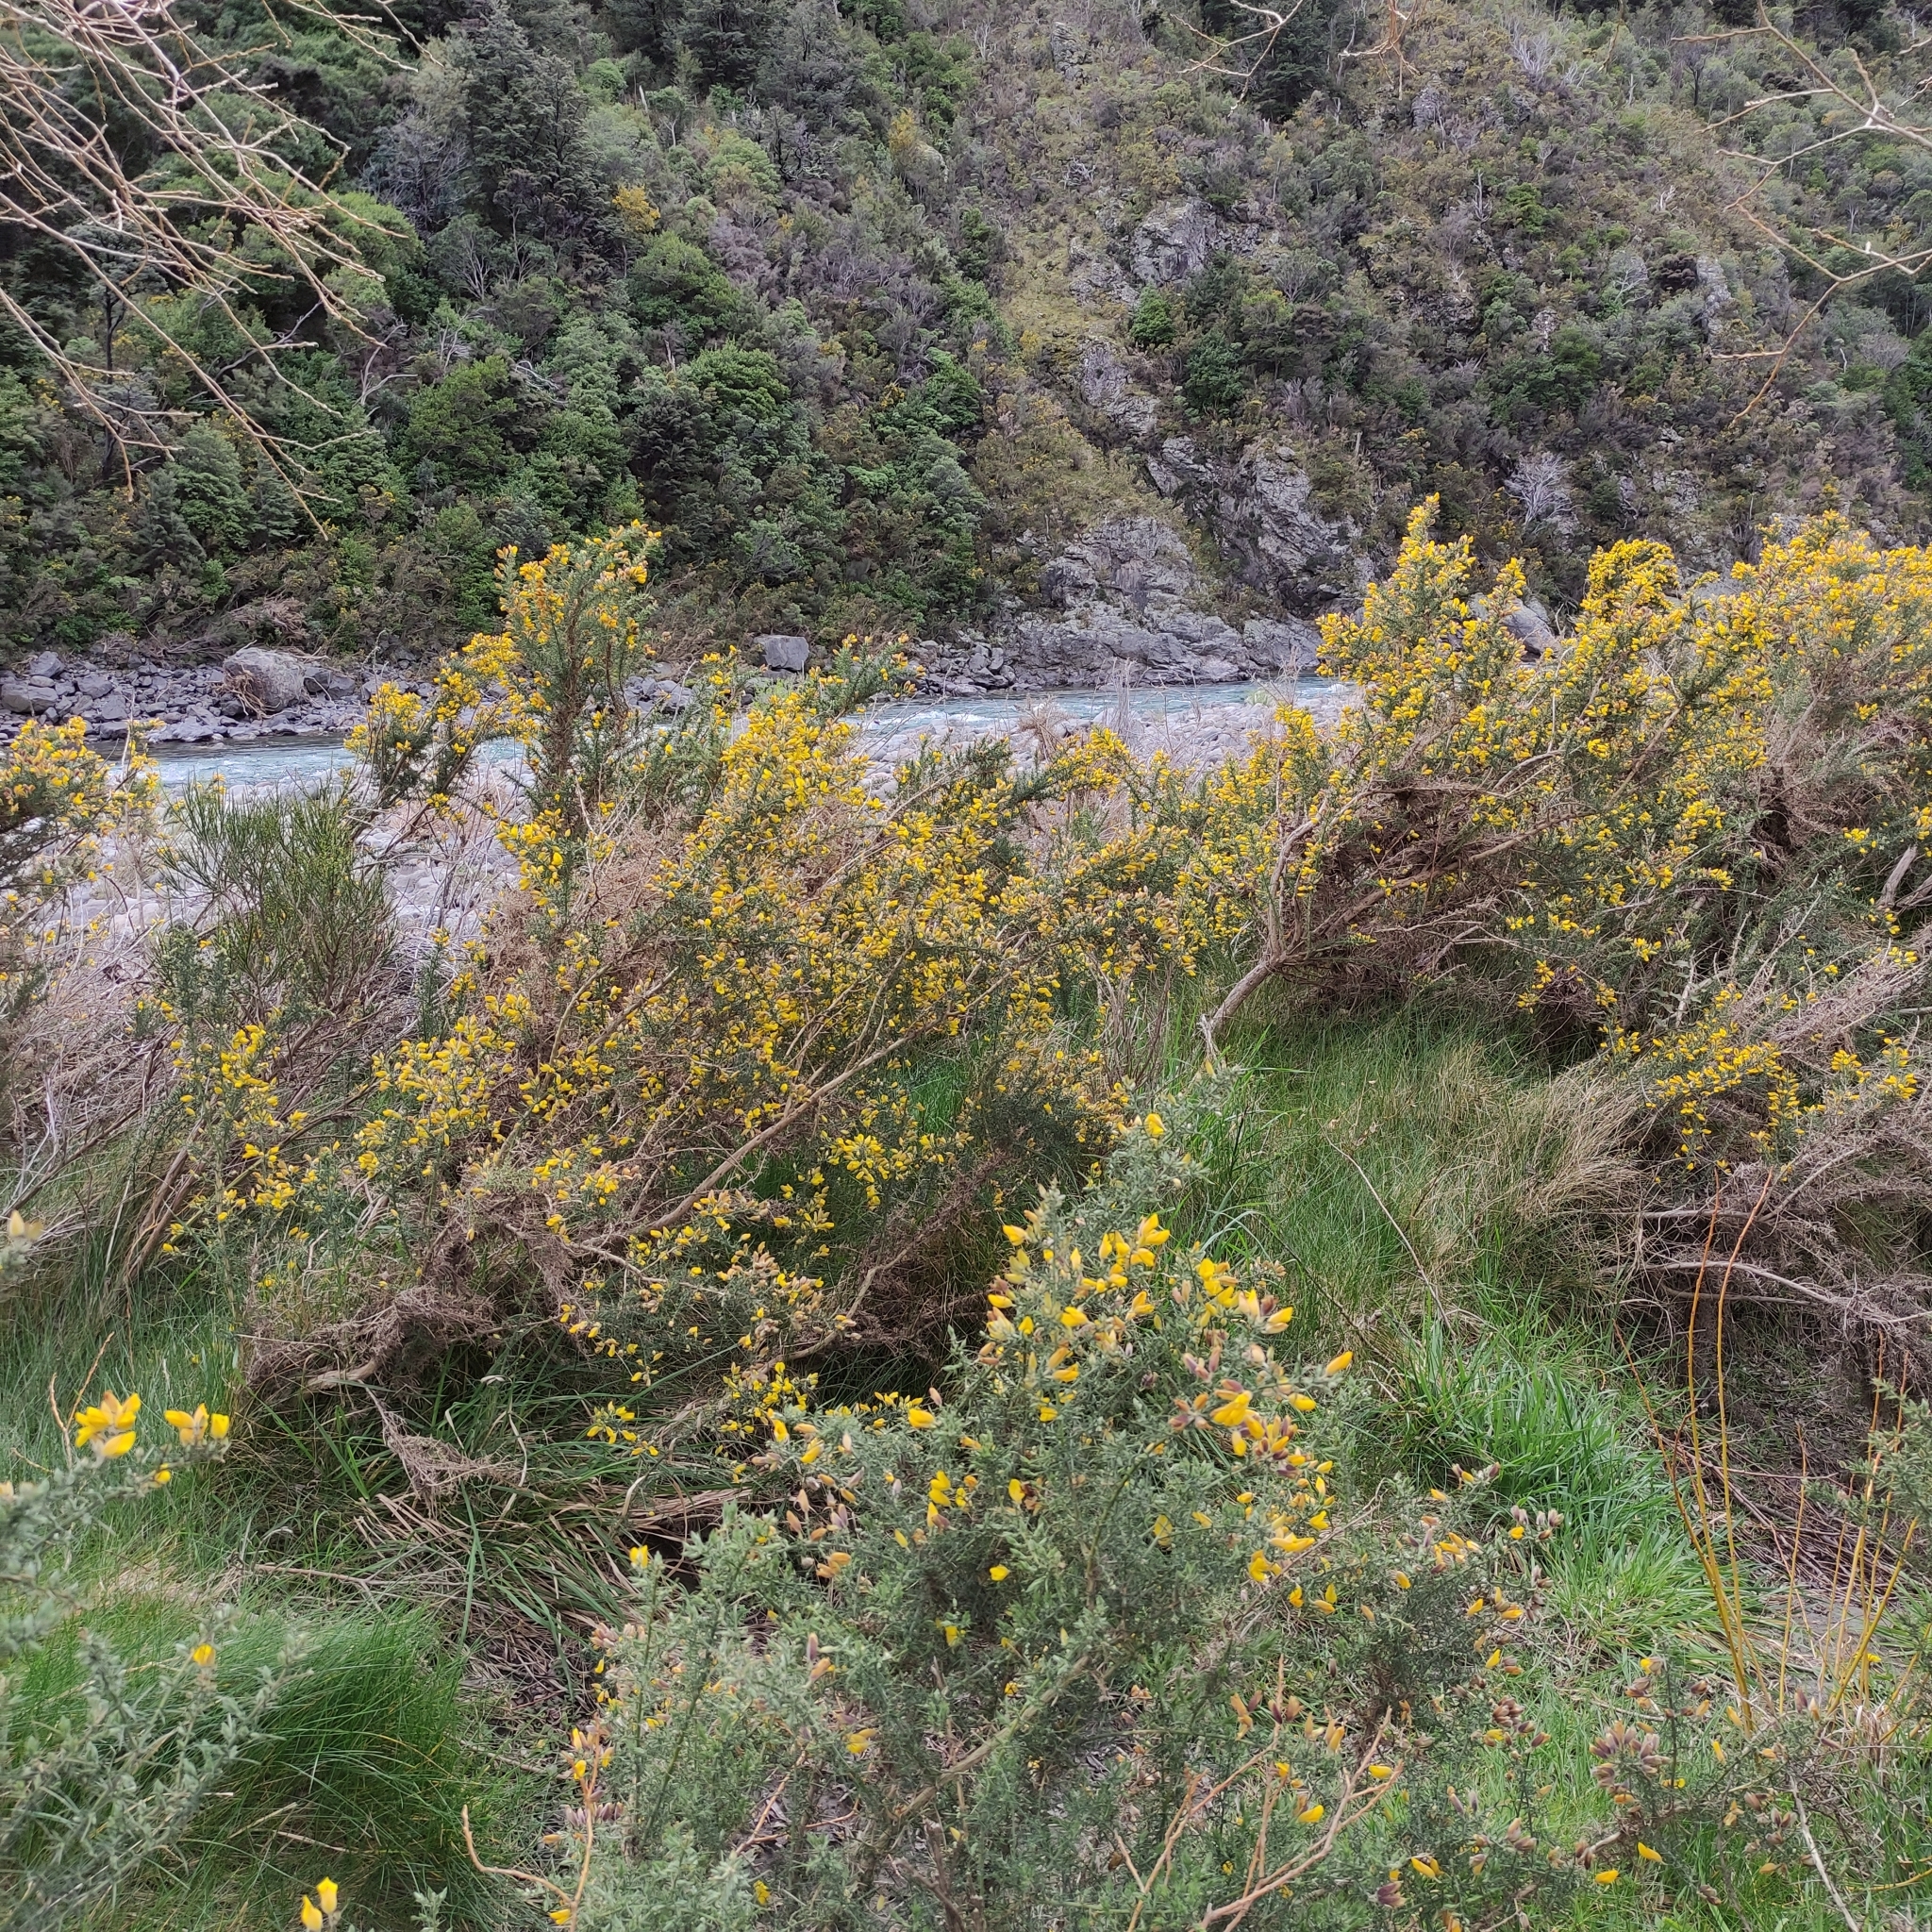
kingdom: Plantae
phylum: Tracheophyta
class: Magnoliopsida
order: Fabales
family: Fabaceae
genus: Ulex
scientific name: Ulex europaeus
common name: Common gorse
